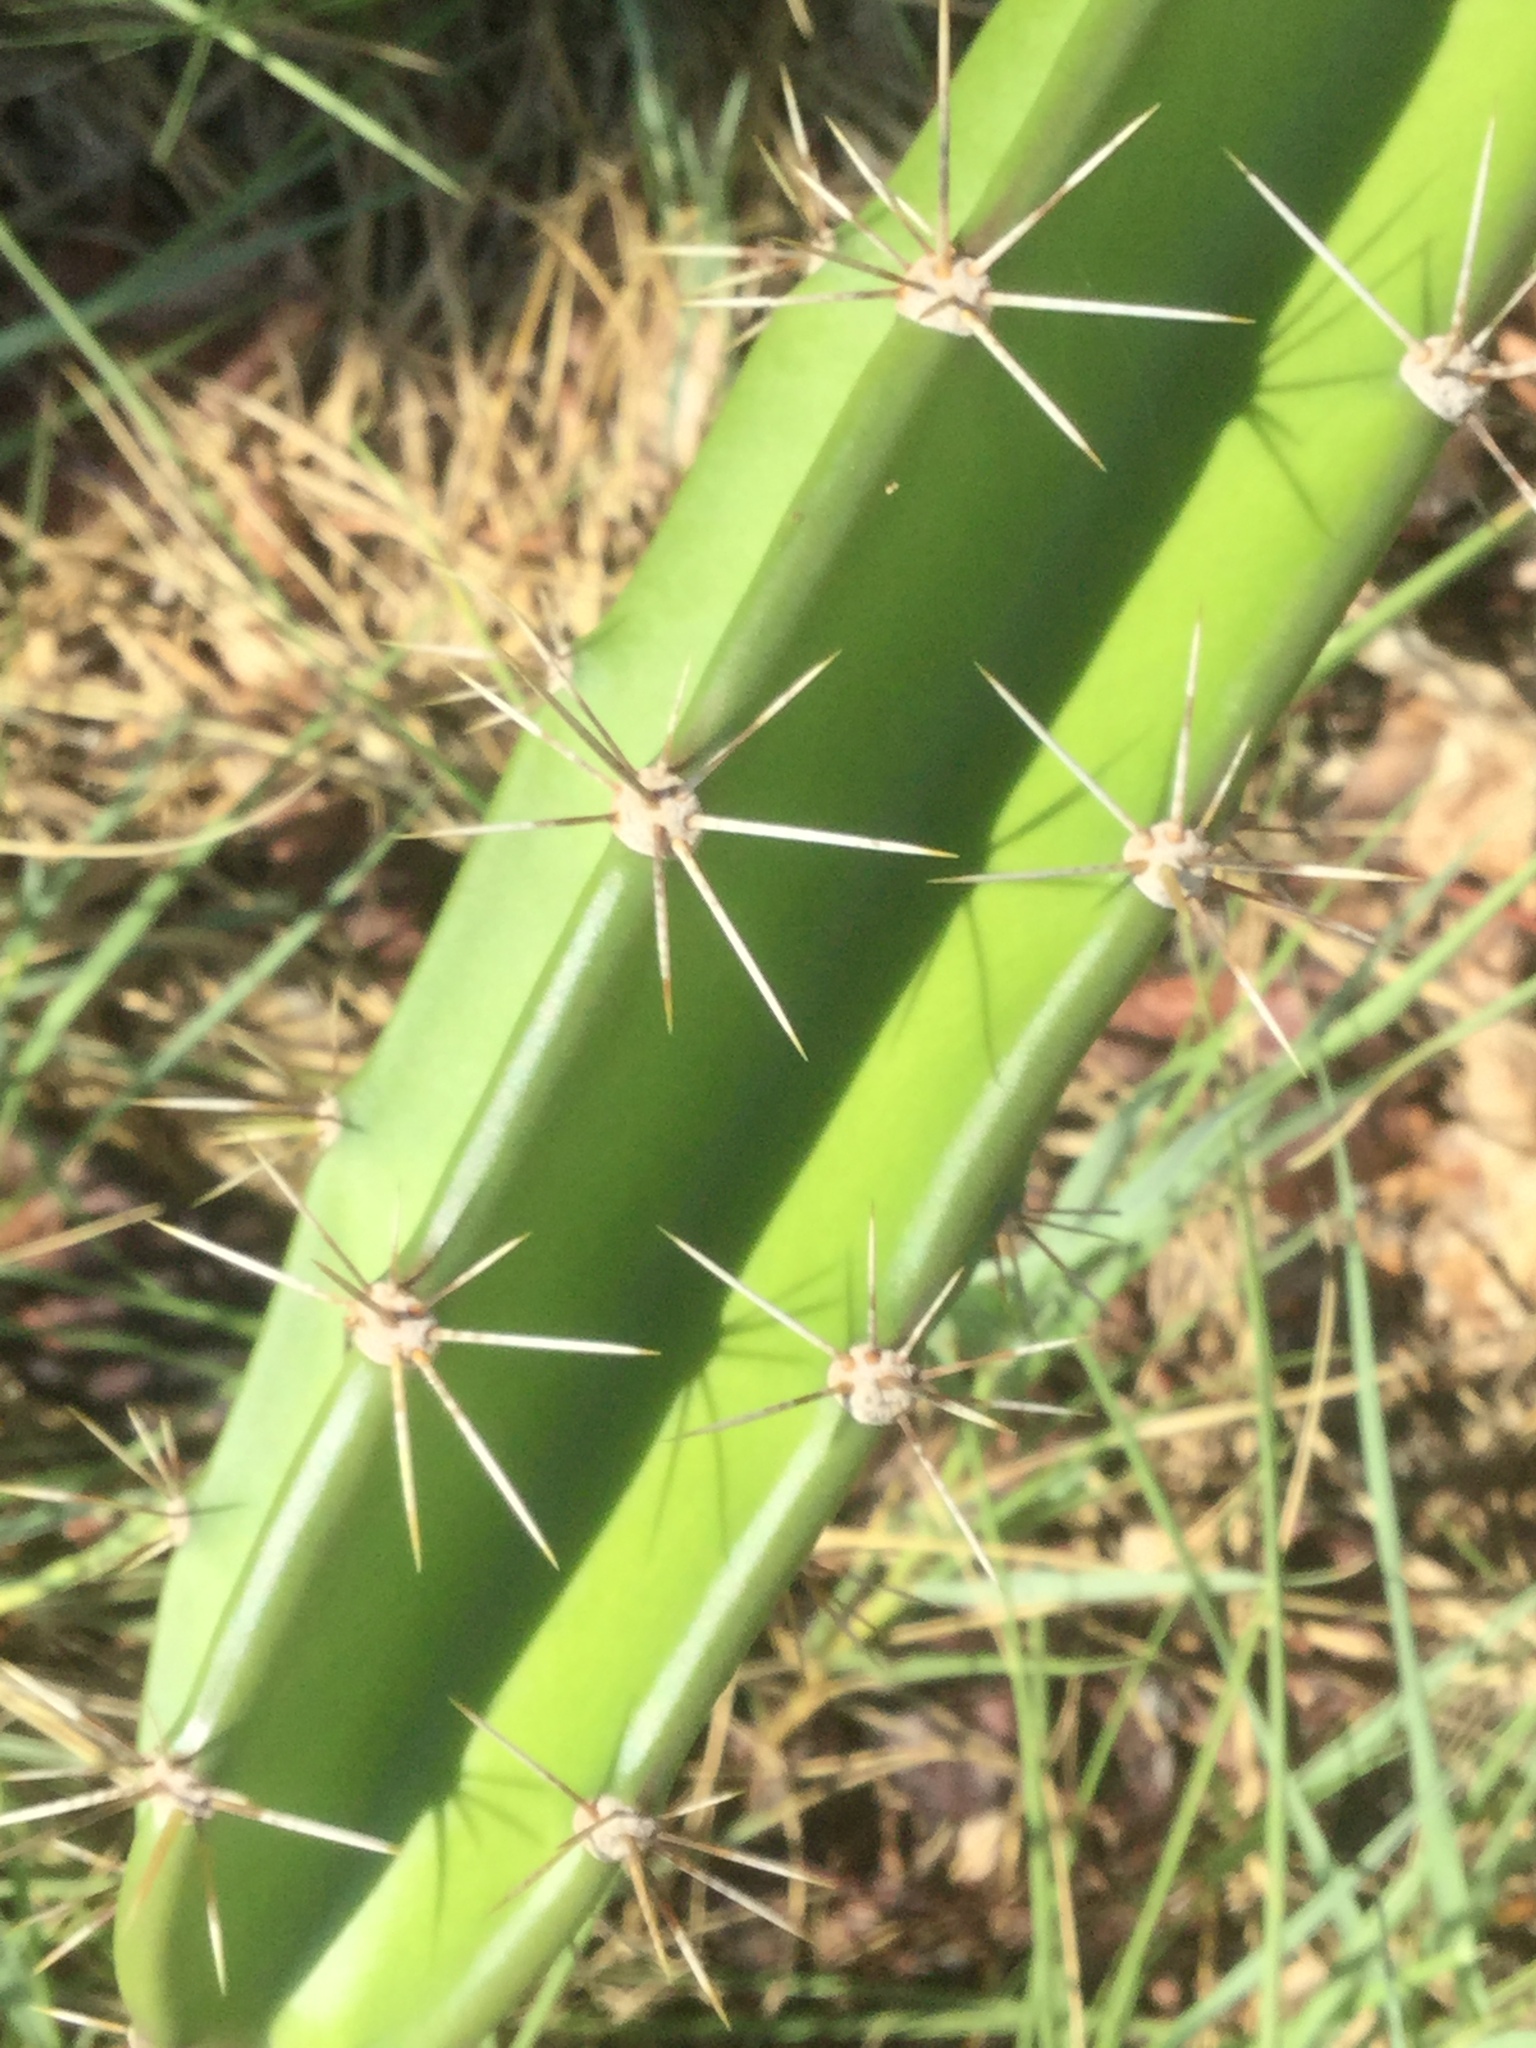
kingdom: Plantae
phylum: Tracheophyta
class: Magnoliopsida
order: Caryophyllales
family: Cactaceae
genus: Acanthocereus
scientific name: Acanthocereus tetragonus
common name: Triangle cactus
